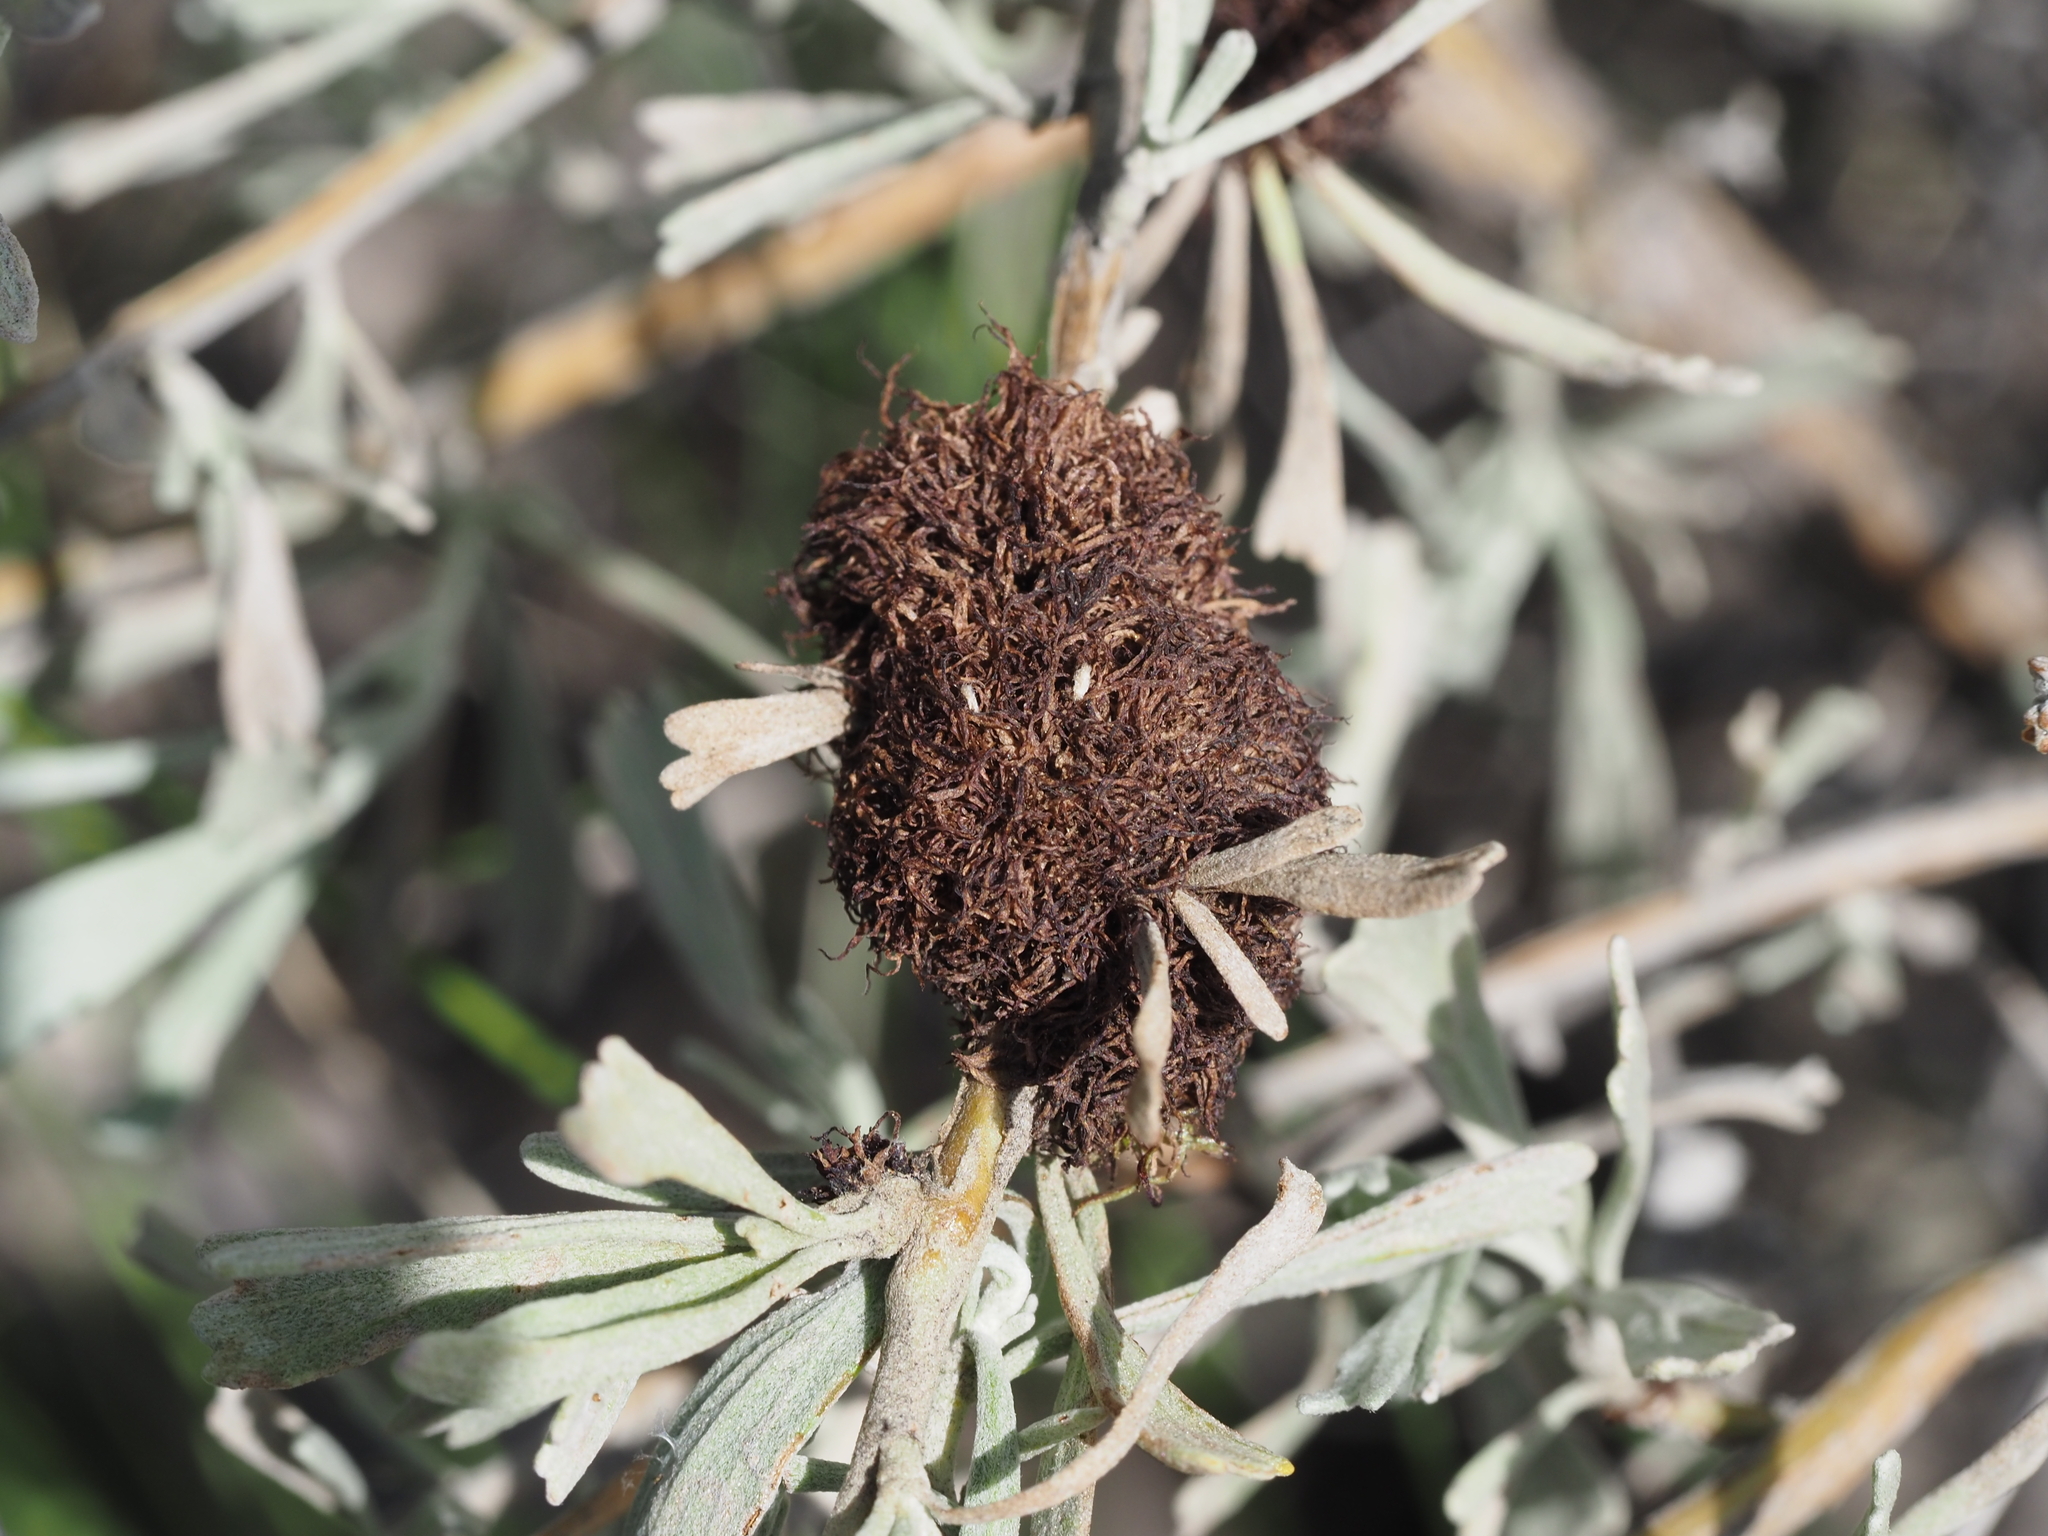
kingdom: Animalia
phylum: Arthropoda
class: Insecta
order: Diptera
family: Cecidomyiidae
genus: Rhopalomyia
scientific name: Rhopalomyia medusa
